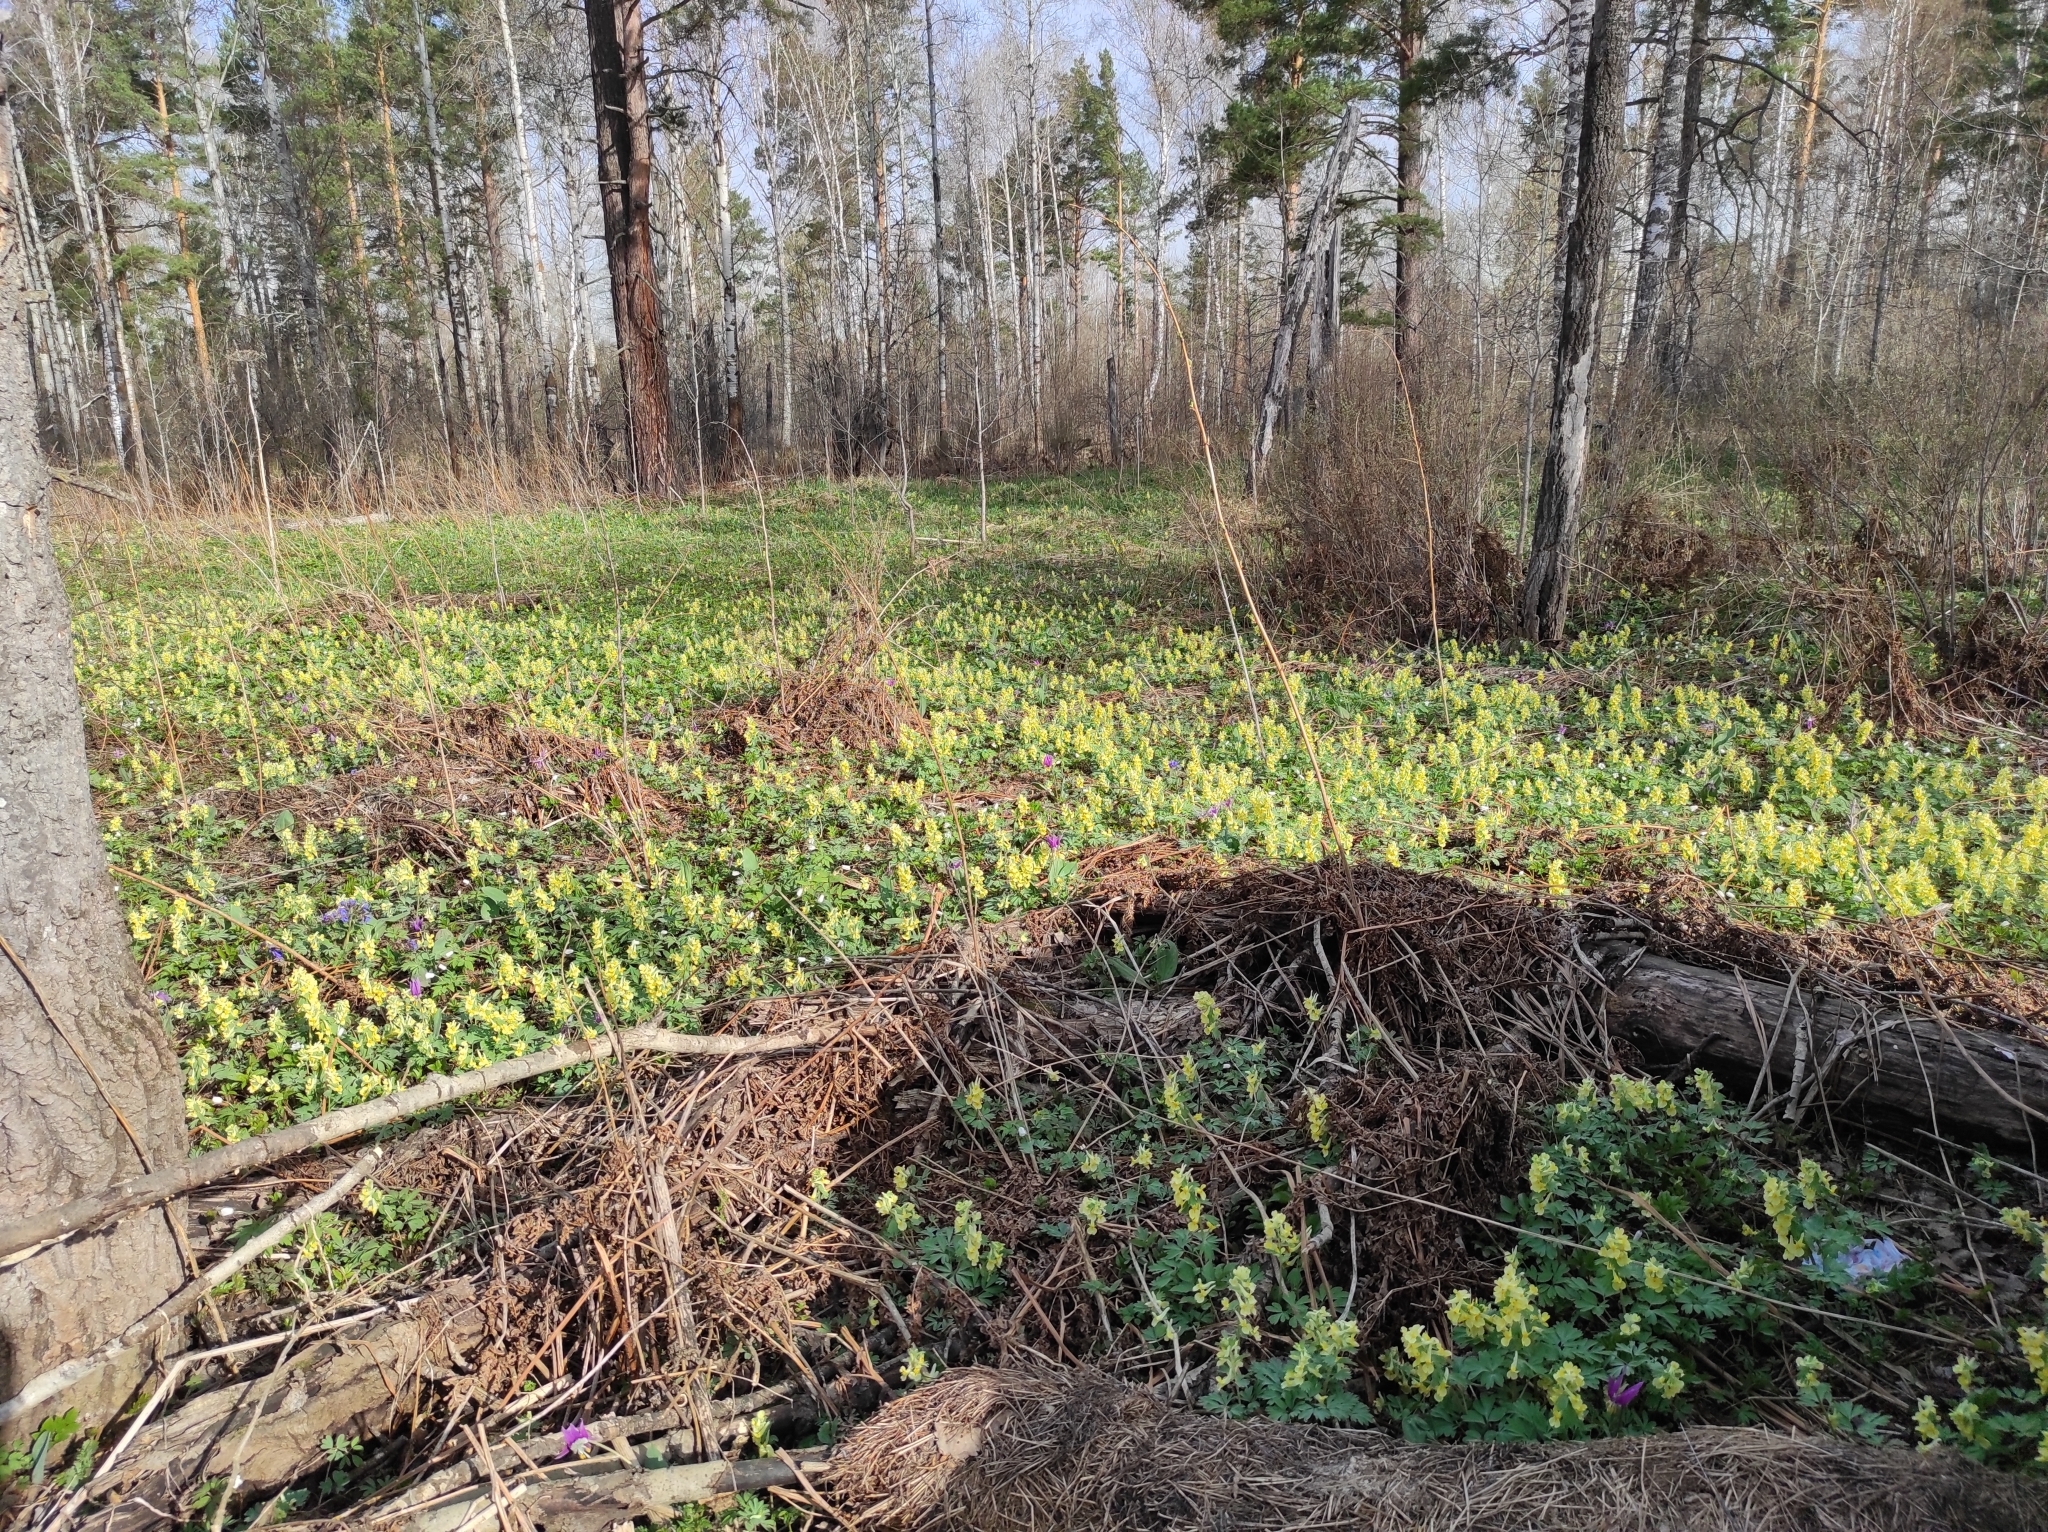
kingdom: Plantae
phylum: Tracheophyta
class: Magnoliopsida
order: Ranunculales
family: Papaveraceae
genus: Corydalis
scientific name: Corydalis bracteata
